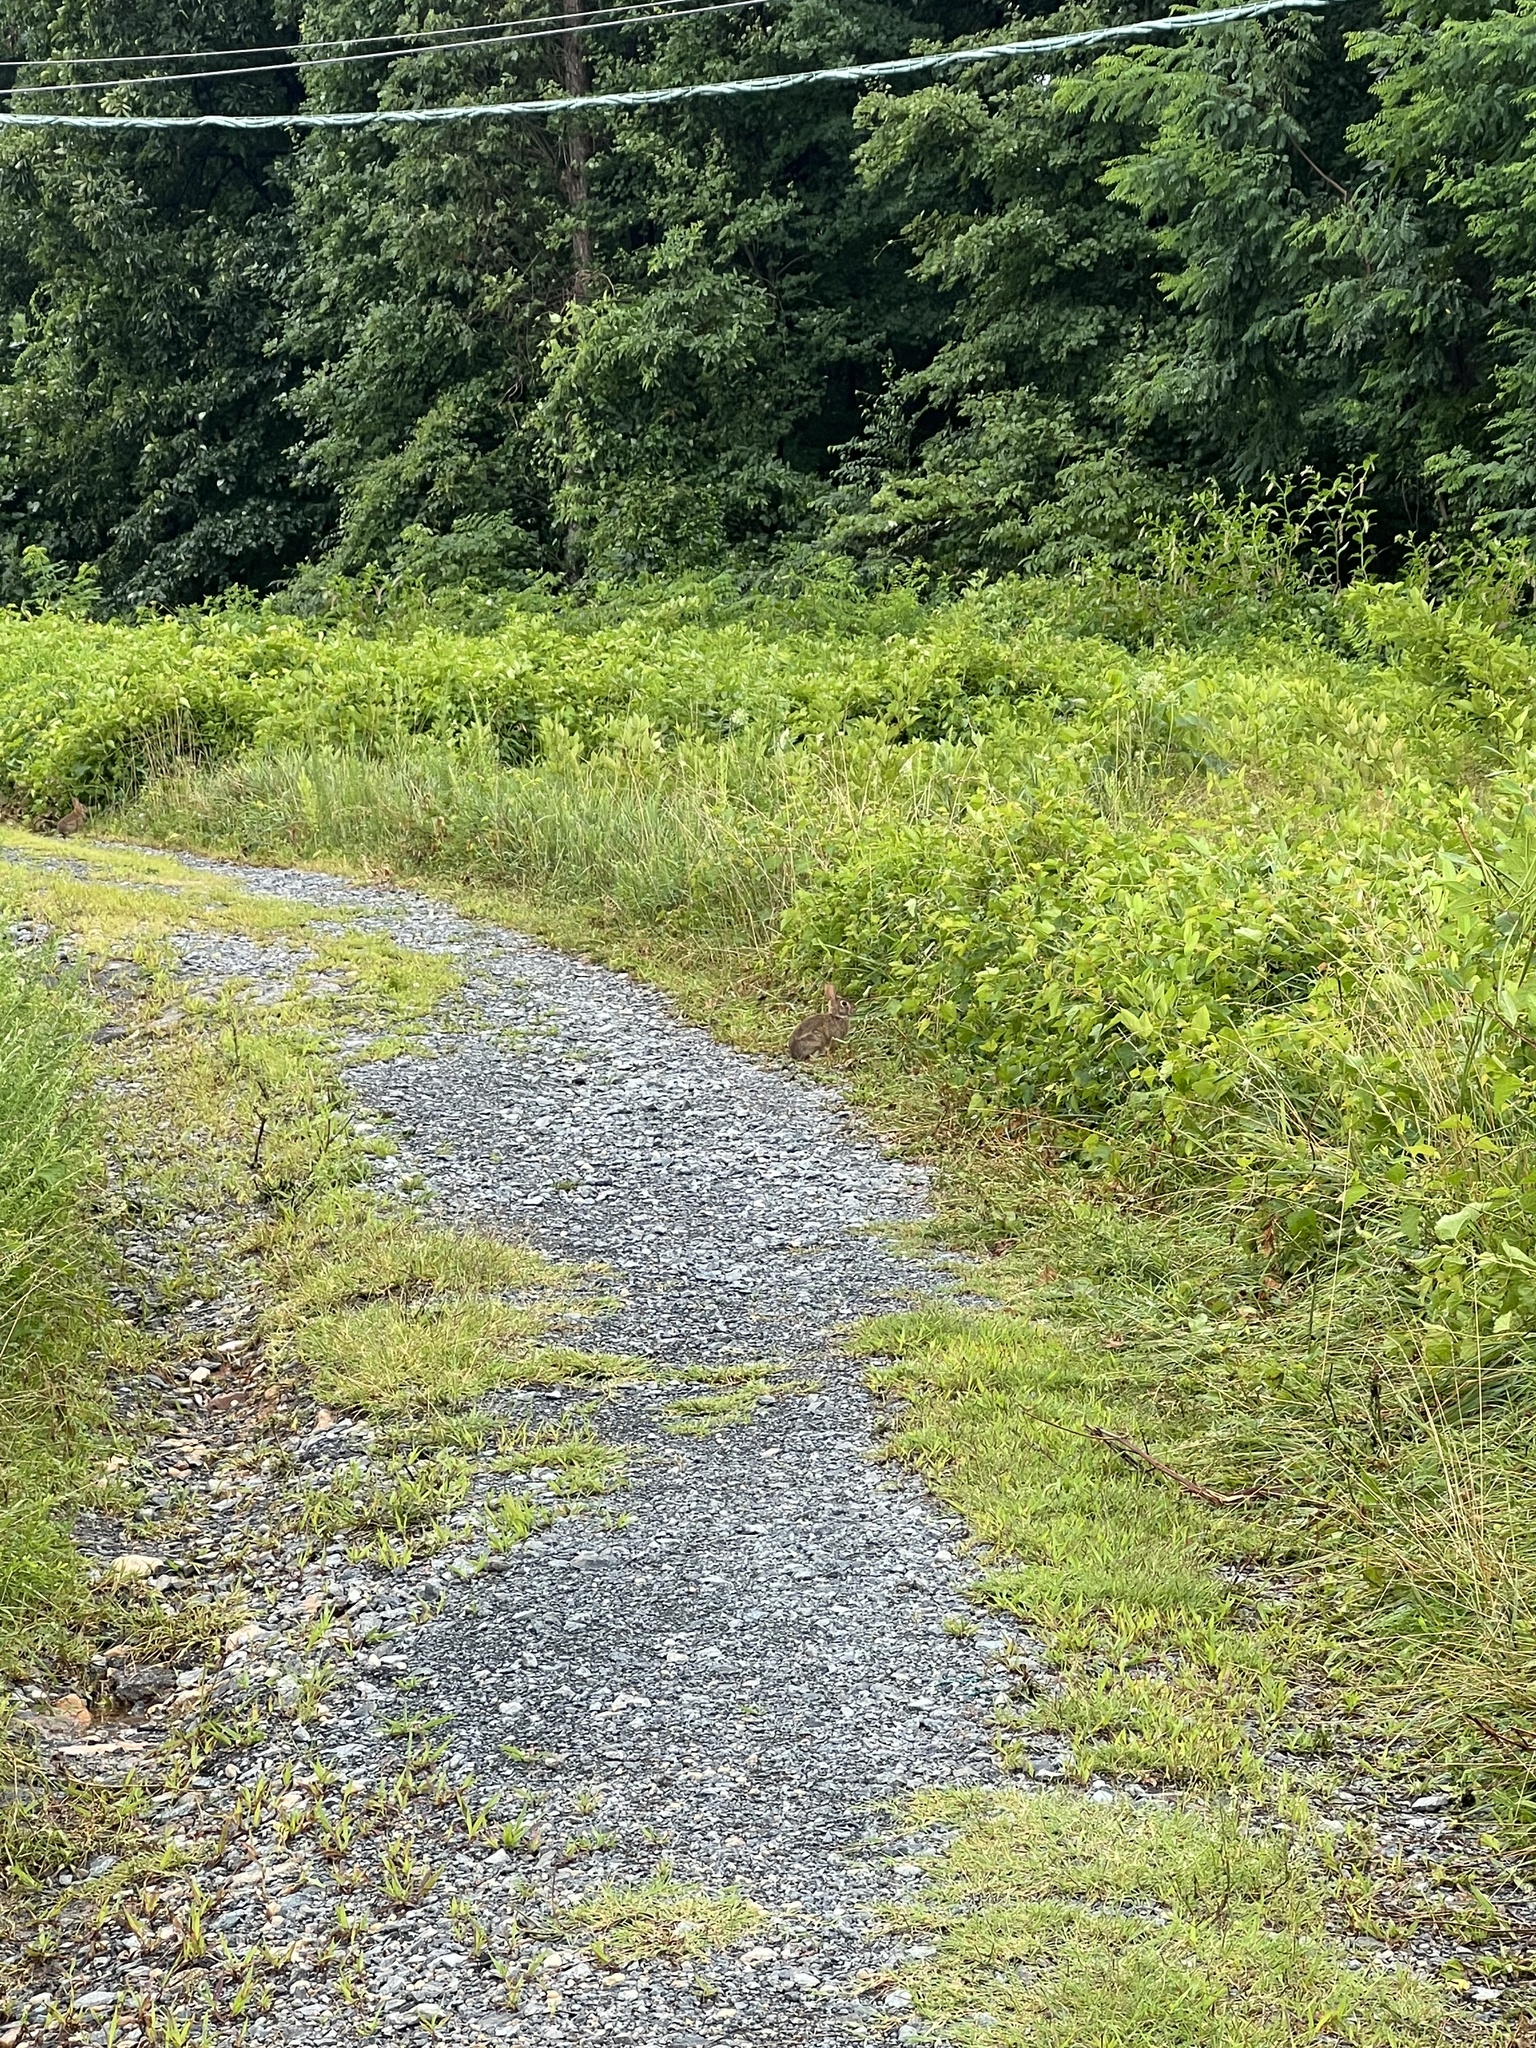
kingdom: Animalia
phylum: Chordata
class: Mammalia
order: Lagomorpha
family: Leporidae
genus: Sylvilagus
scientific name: Sylvilagus floridanus
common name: Eastern cottontail
